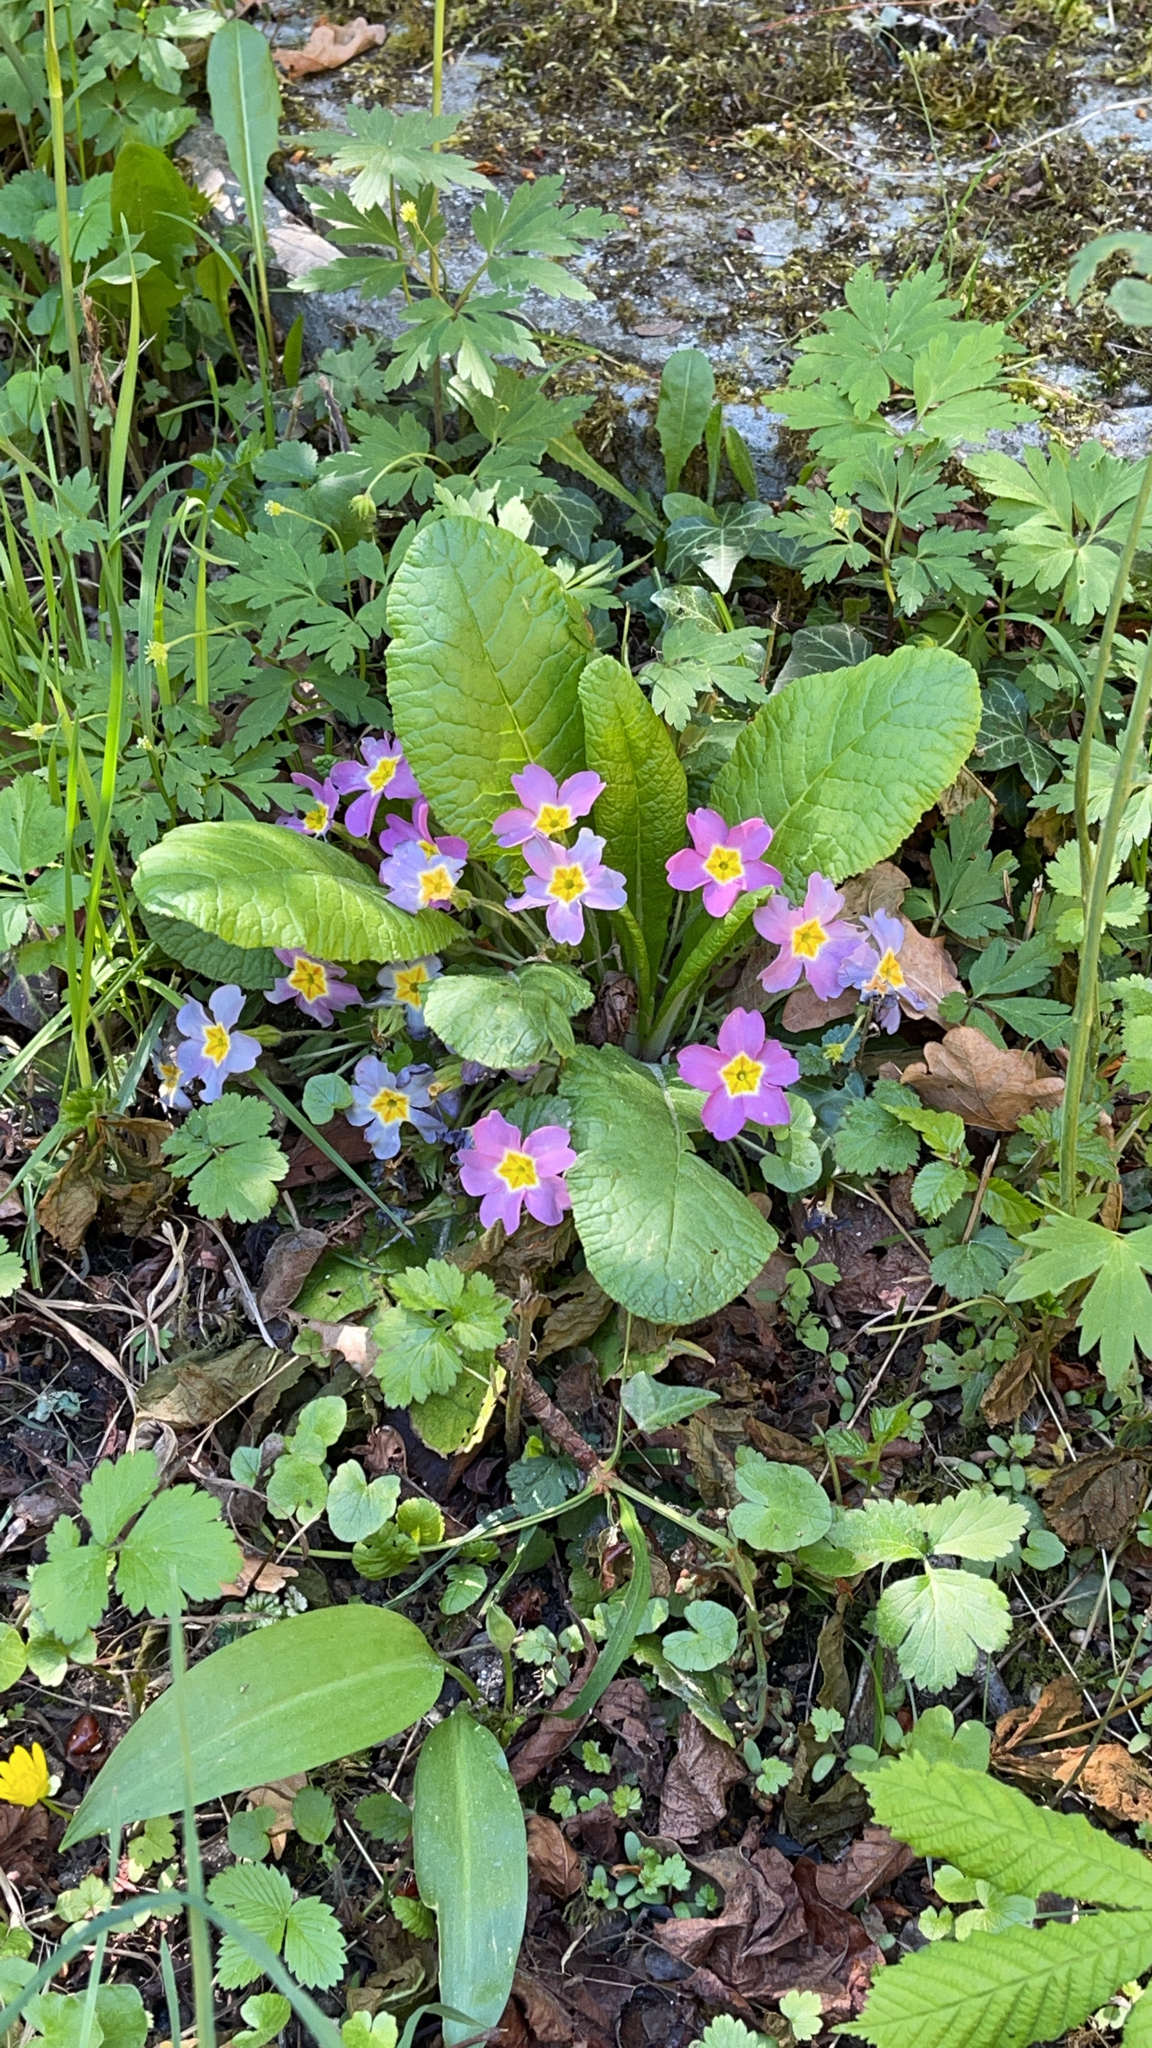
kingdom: Plantae
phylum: Tracheophyta
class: Magnoliopsida
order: Ericales
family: Primulaceae
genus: Primula
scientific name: Primula vulgaris
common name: Primrose
